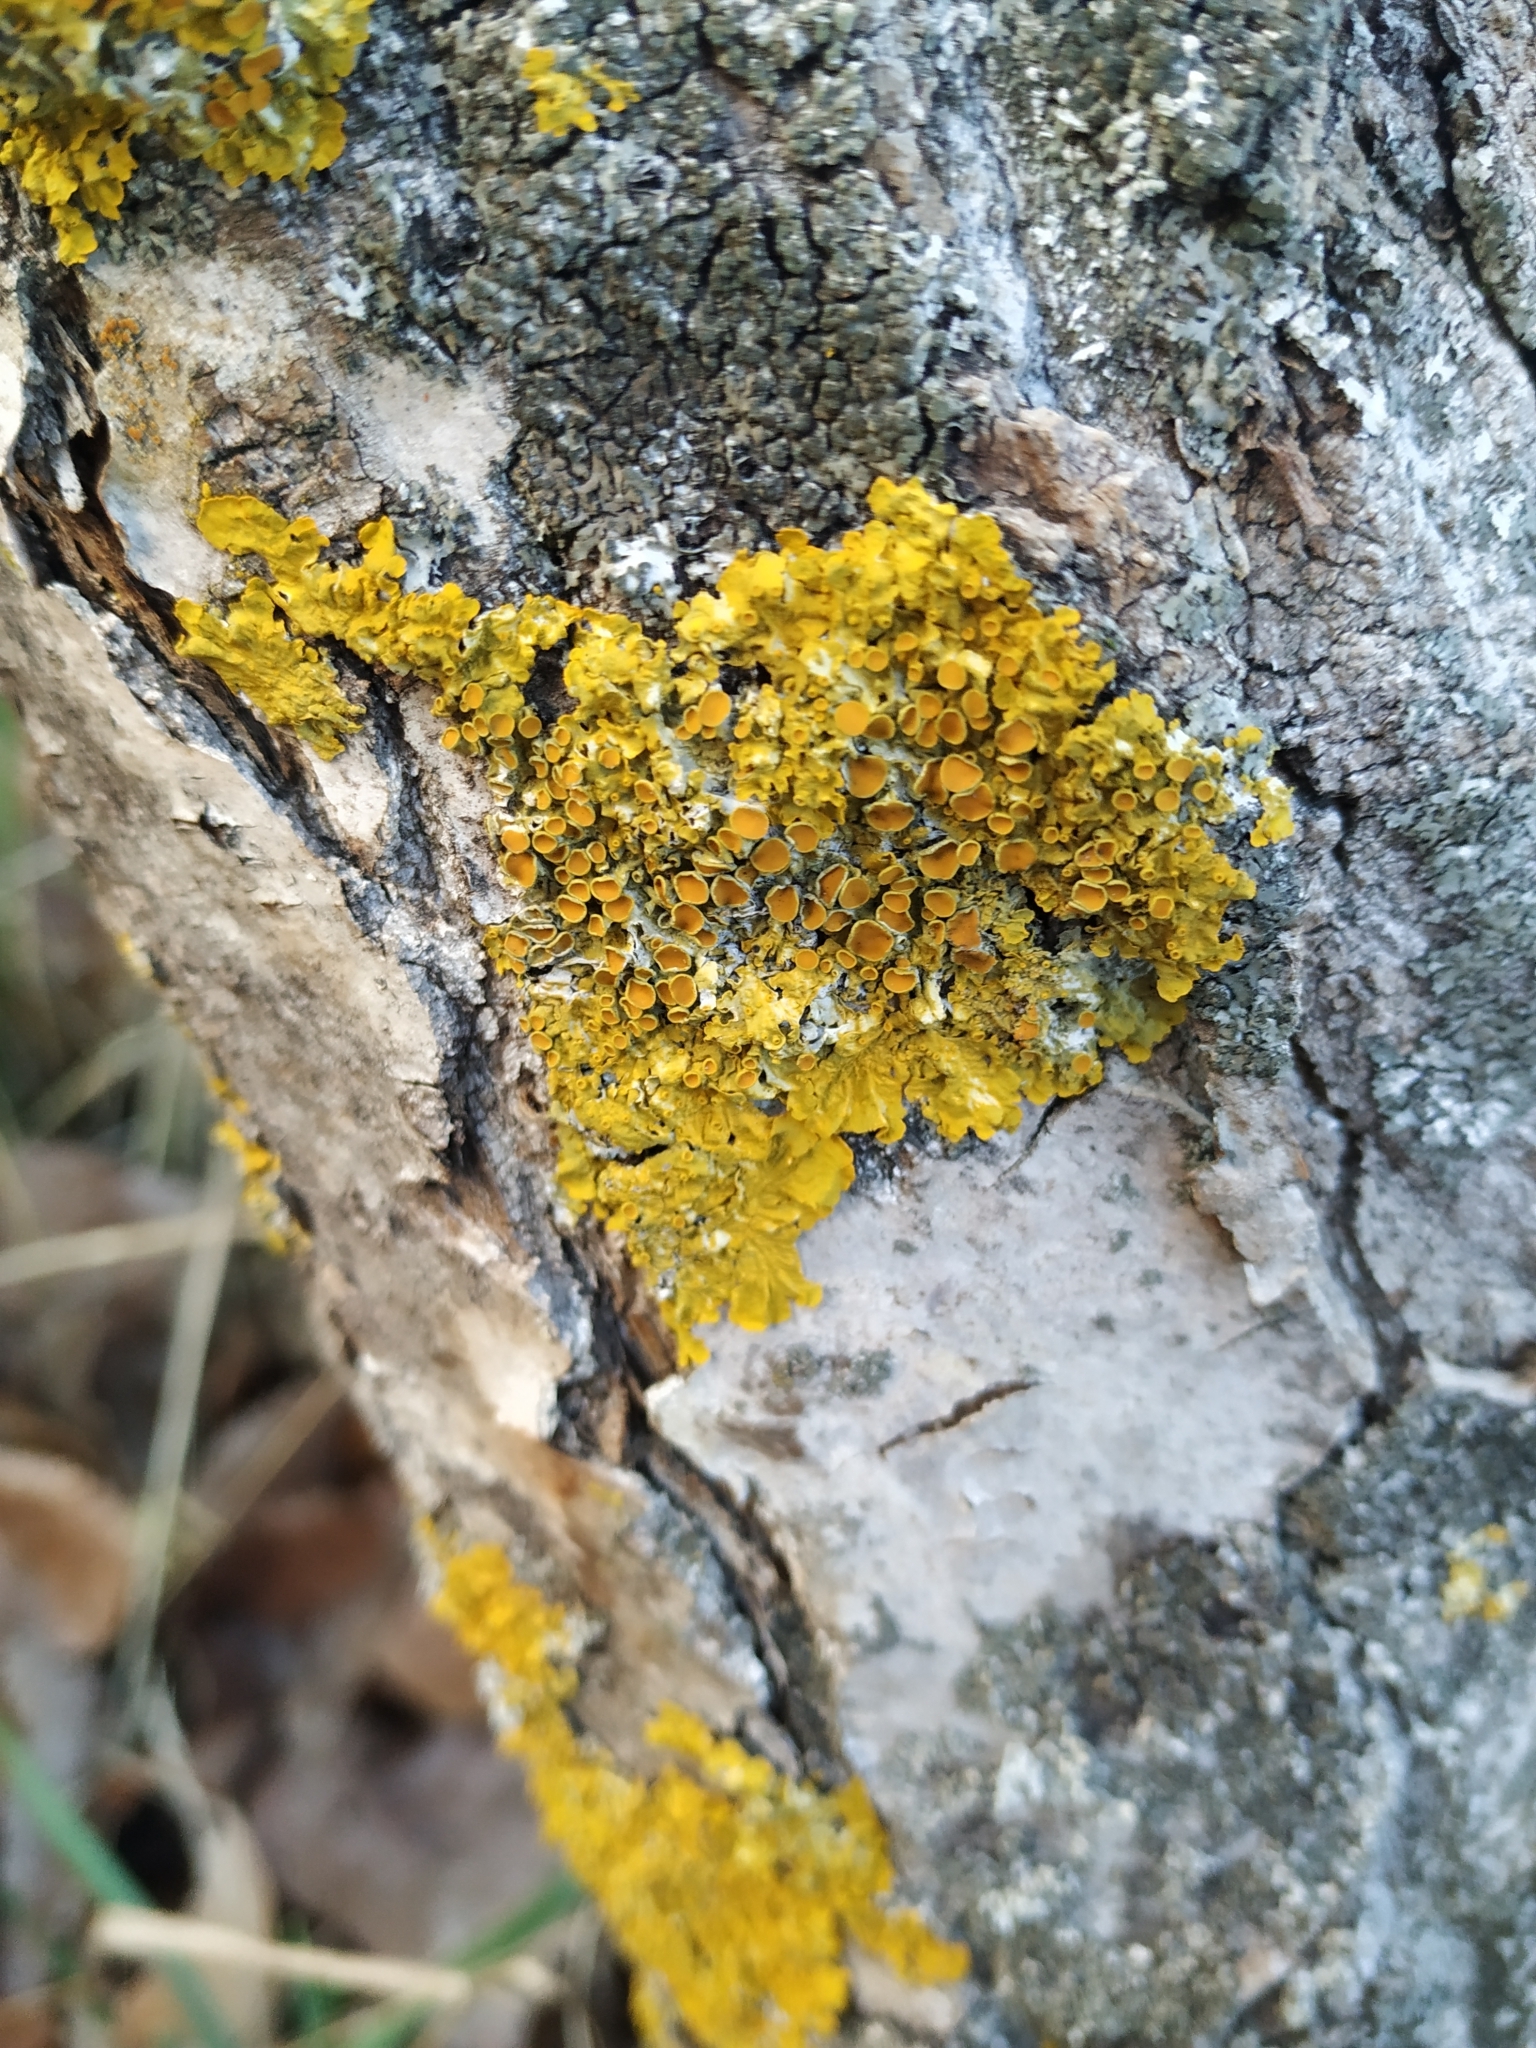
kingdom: Fungi
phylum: Ascomycota
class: Lecanoromycetes
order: Teloschistales
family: Teloschistaceae
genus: Xanthoria
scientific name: Xanthoria parietina
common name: Common orange lichen
